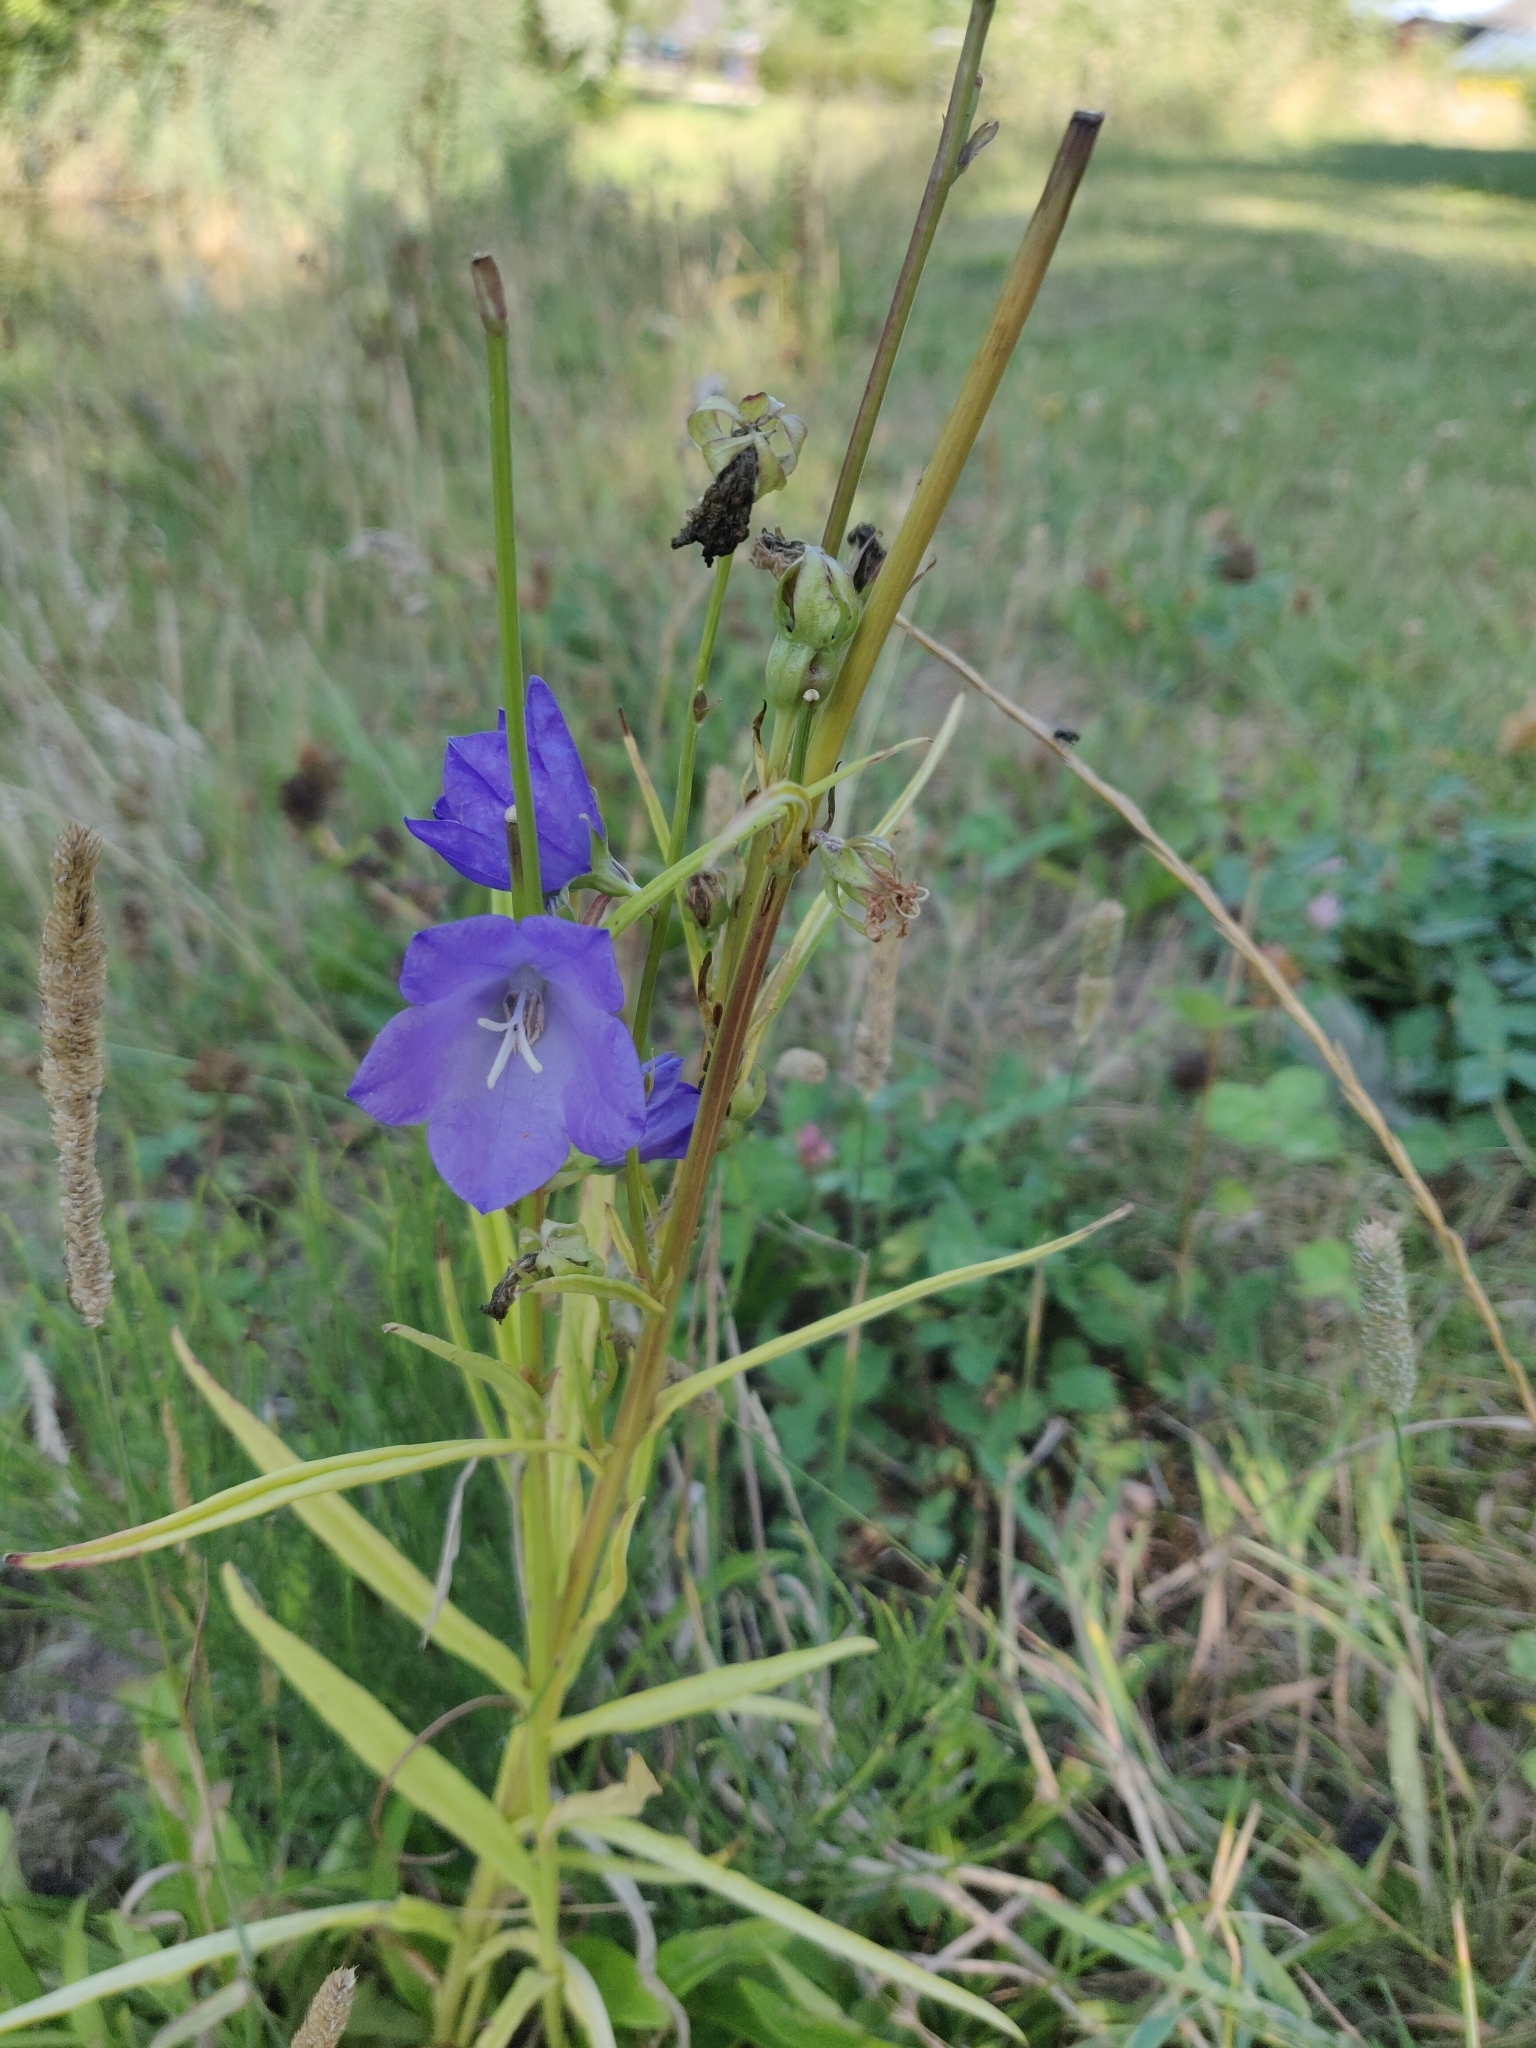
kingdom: Plantae
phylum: Tracheophyta
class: Magnoliopsida
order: Asterales
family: Campanulaceae
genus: Campanula
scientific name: Campanula persicifolia
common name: Peach-leaved bellflower
